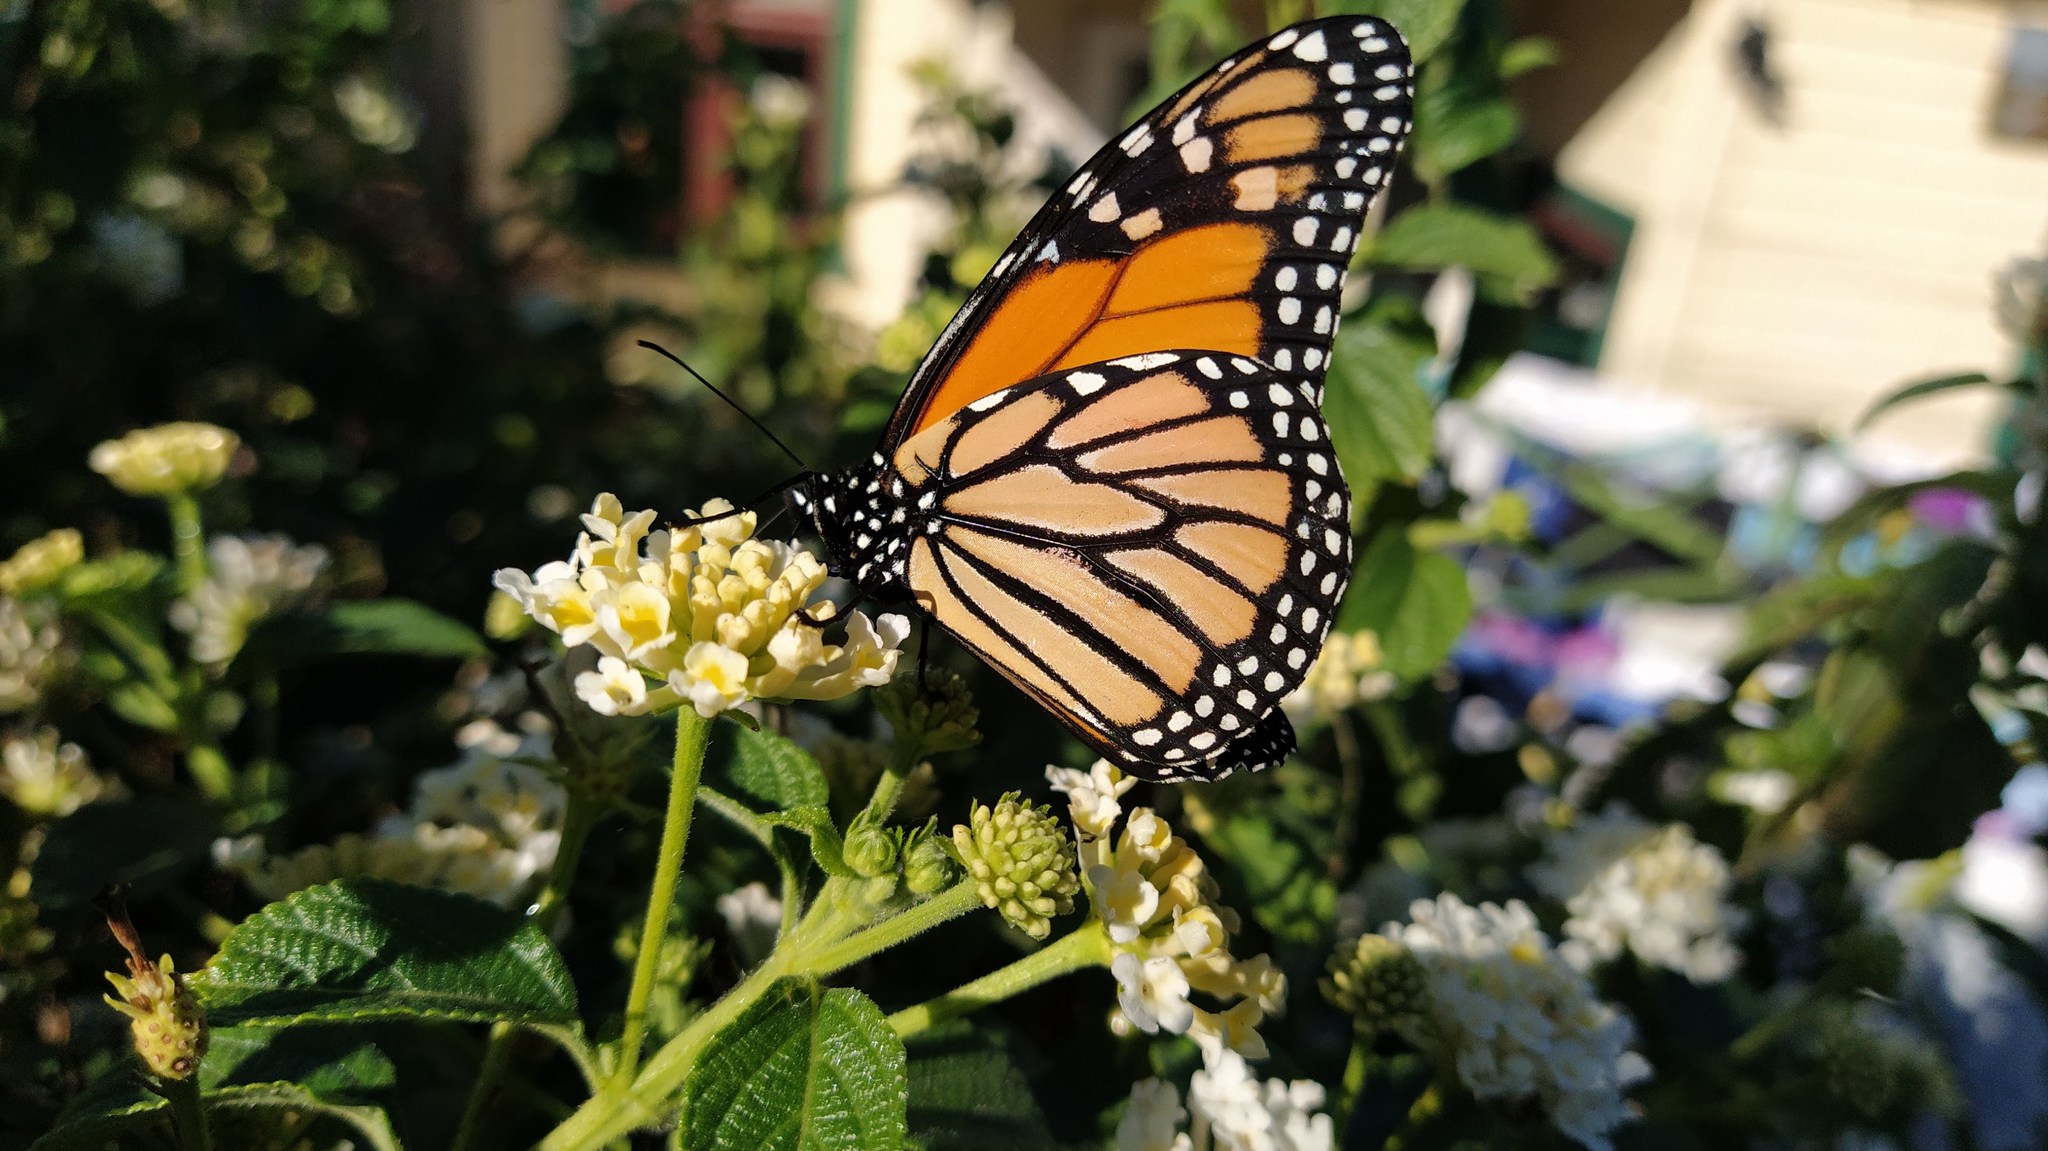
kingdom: Animalia
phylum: Arthropoda
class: Insecta
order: Lepidoptera
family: Nymphalidae
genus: Danaus
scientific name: Danaus plexippus
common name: Monarch
